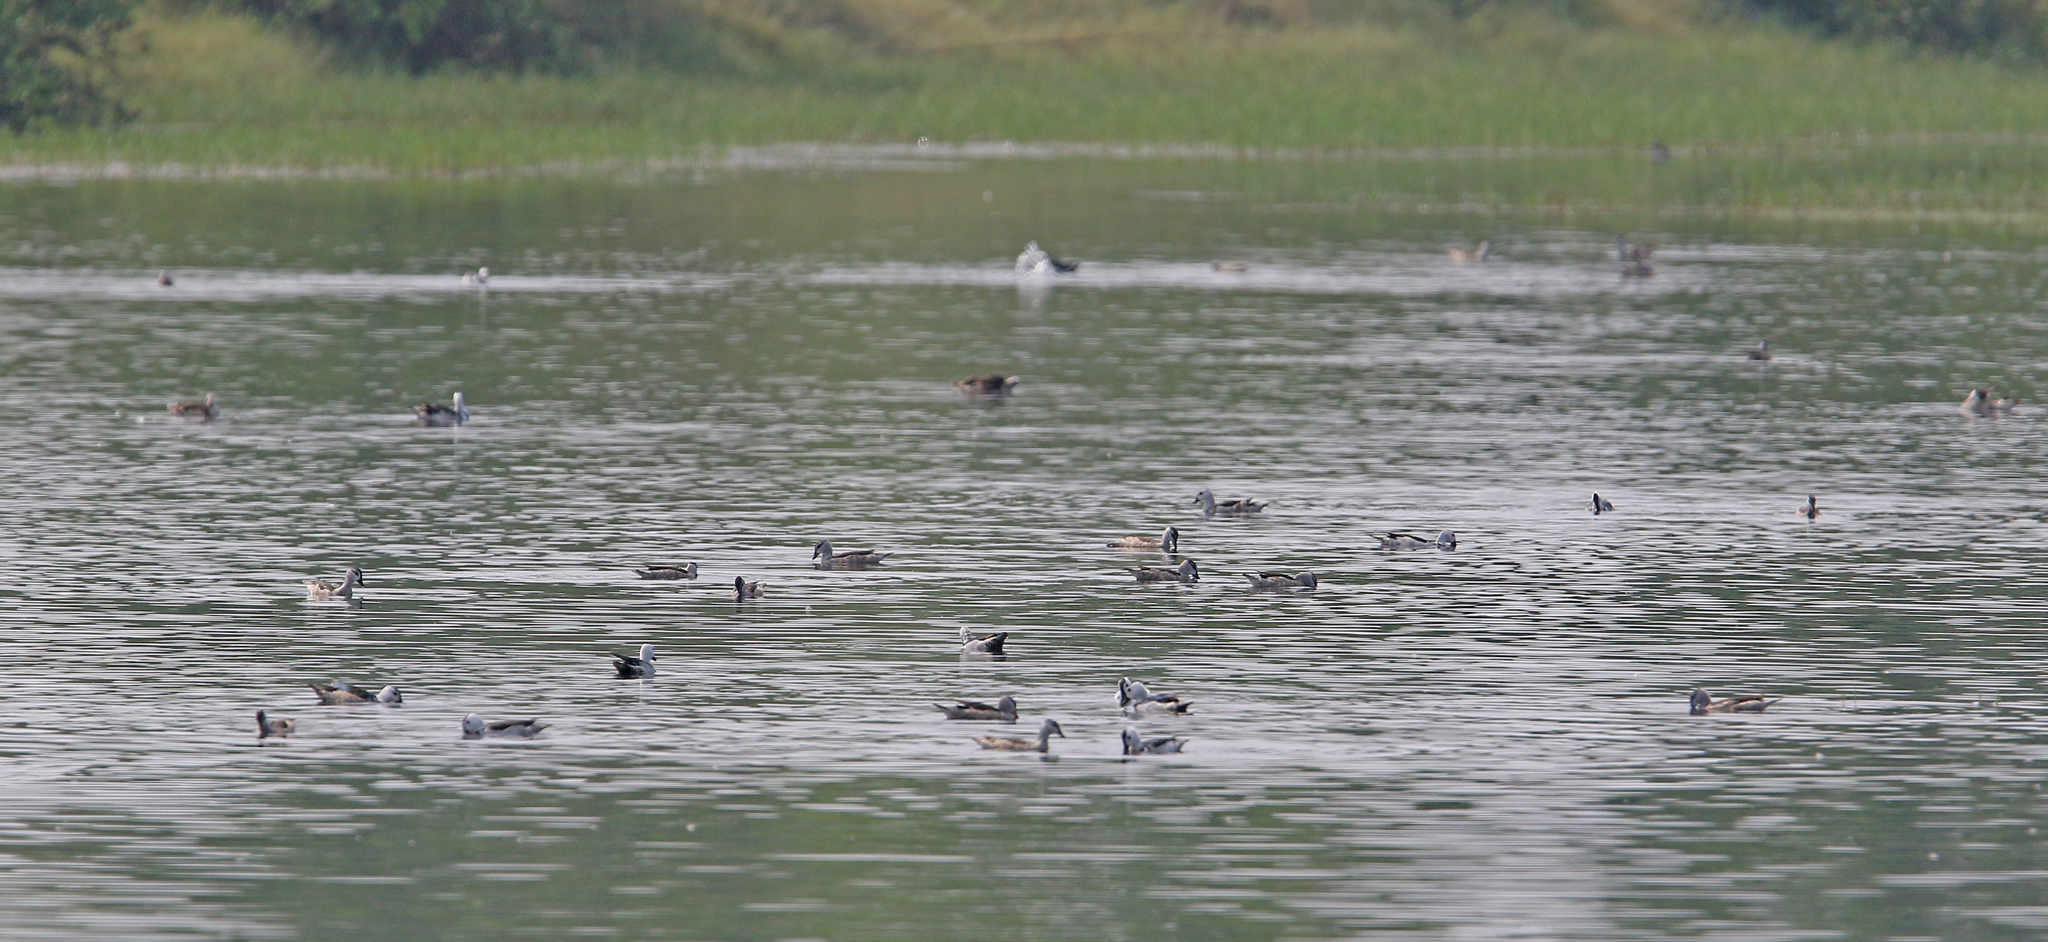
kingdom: Animalia
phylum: Chordata
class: Aves
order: Anseriformes
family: Anatidae
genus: Nettapus
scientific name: Nettapus coromandelianus
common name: Cotton pygmy-goose
